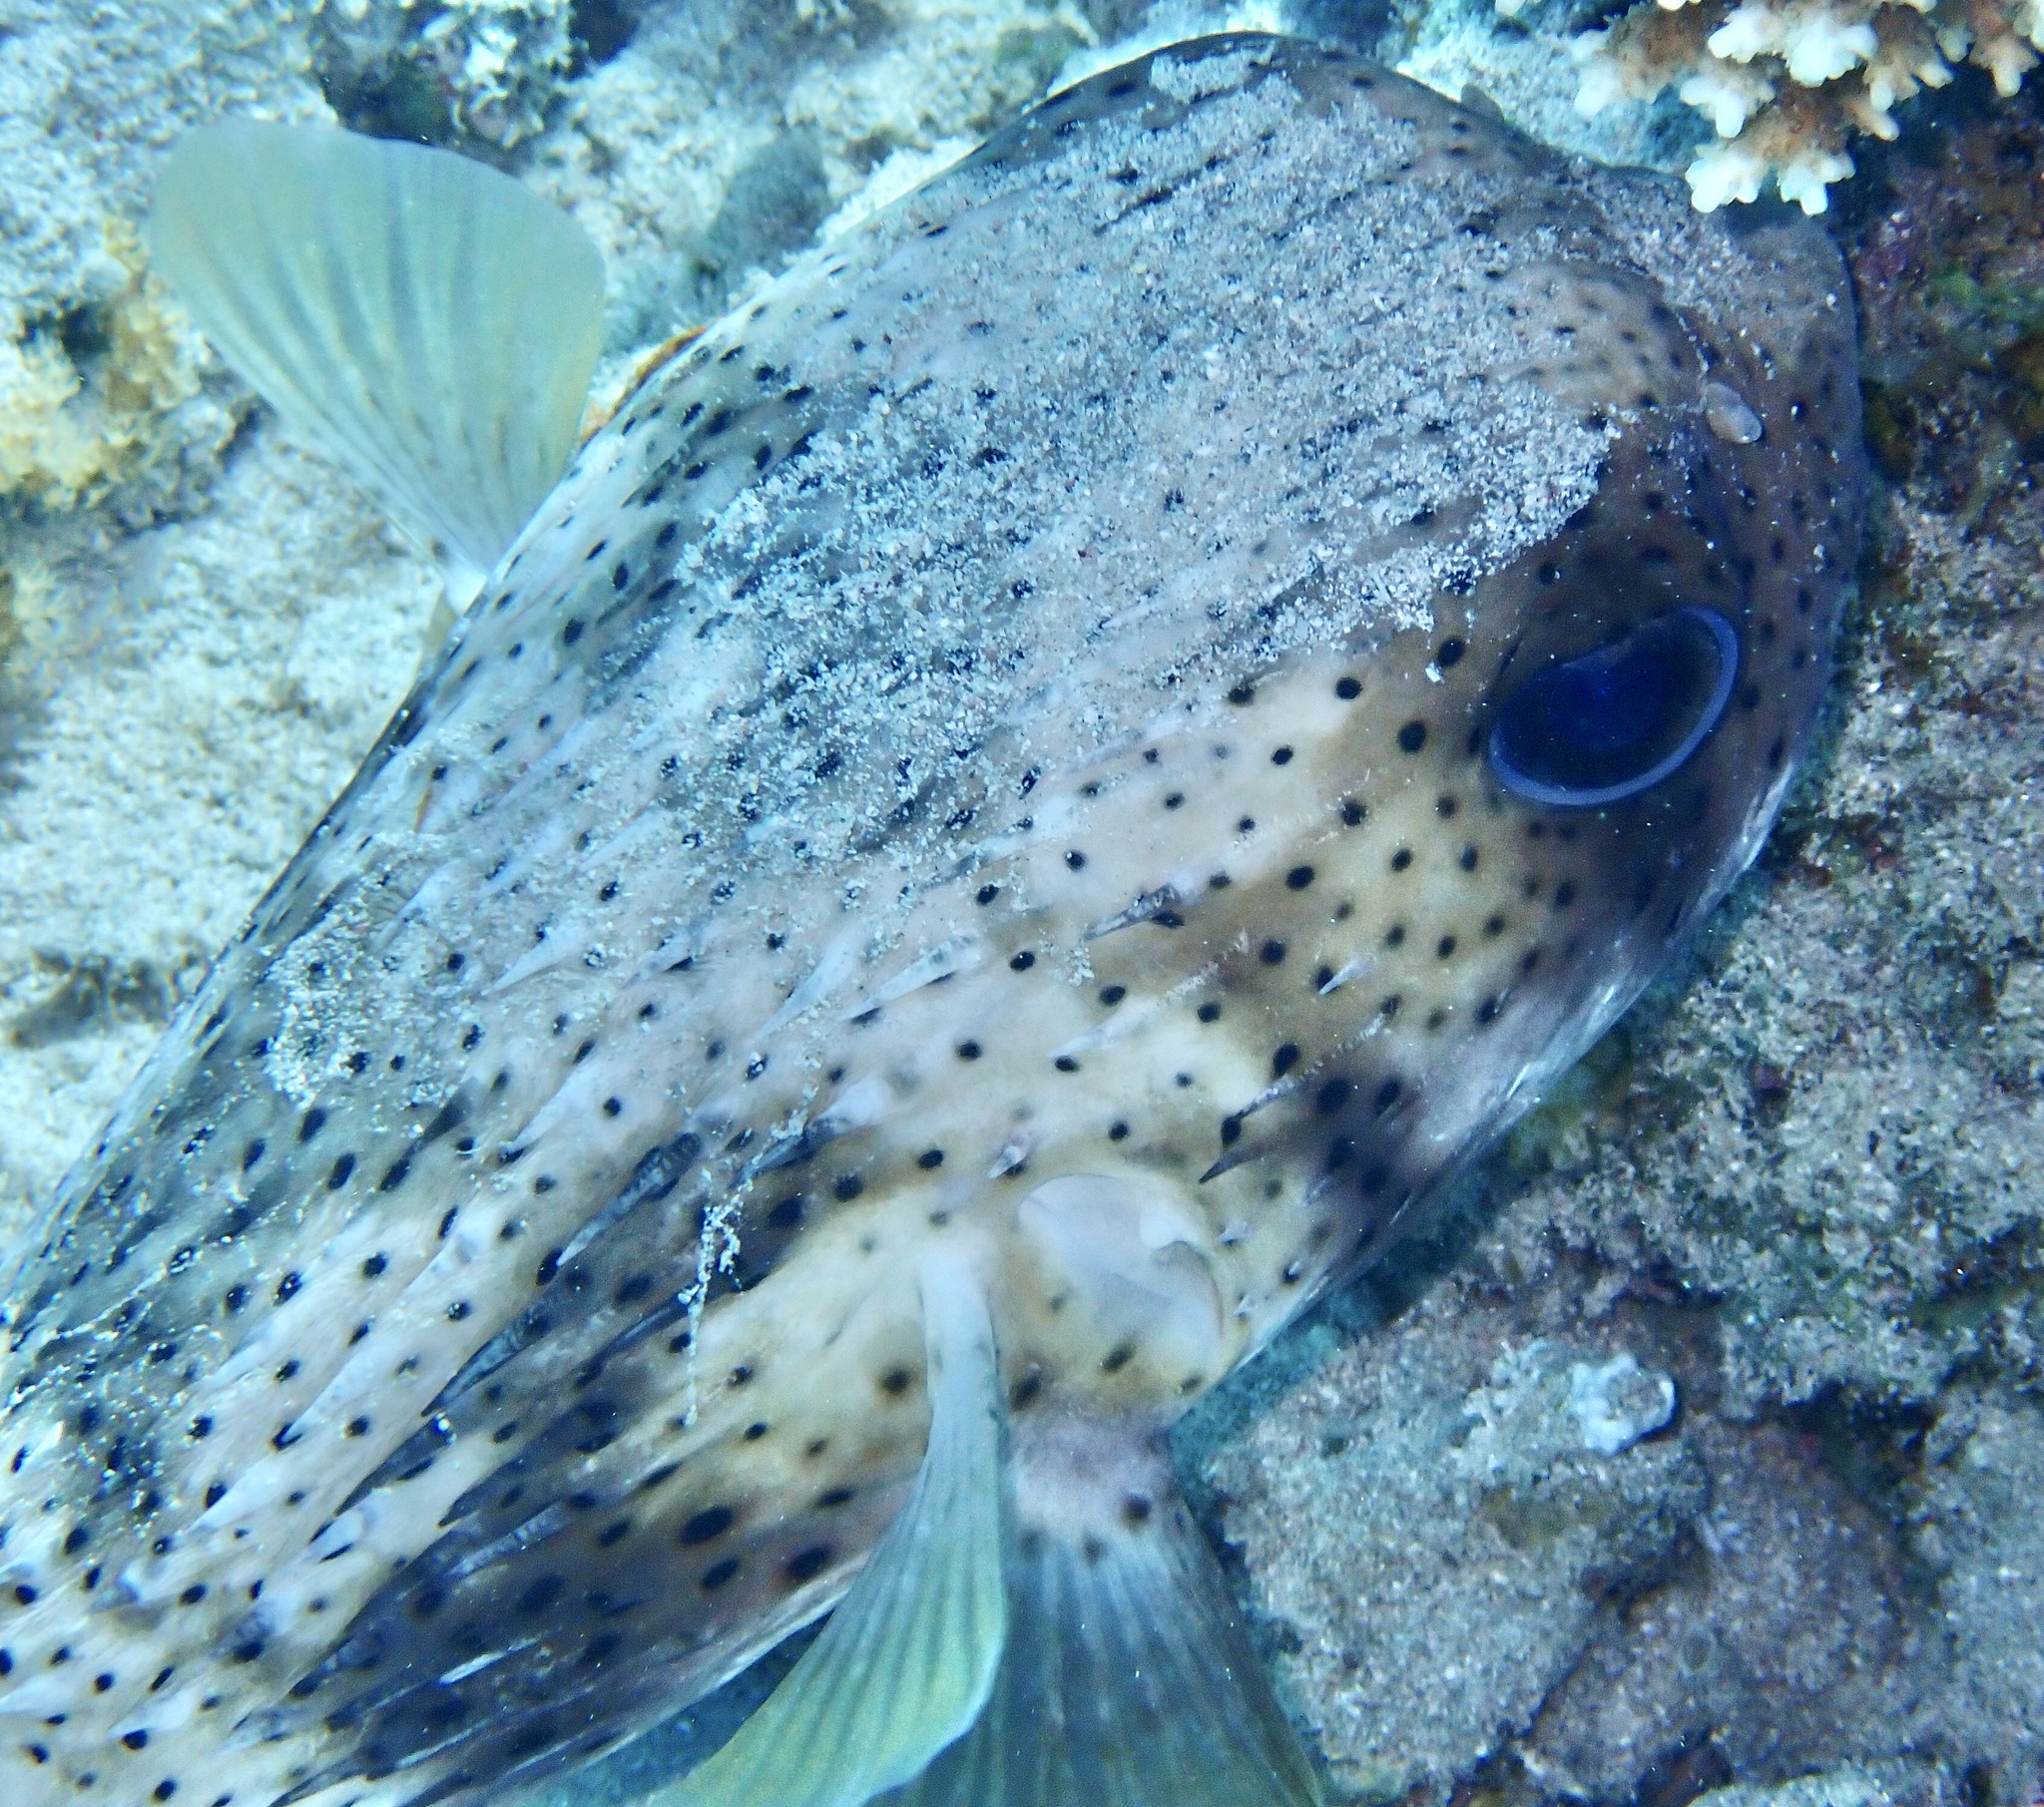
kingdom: Animalia
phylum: Chordata
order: Tetraodontiformes
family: Diodontidae
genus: Diodon
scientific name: Diodon hystrix
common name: Giant porcupinefish
